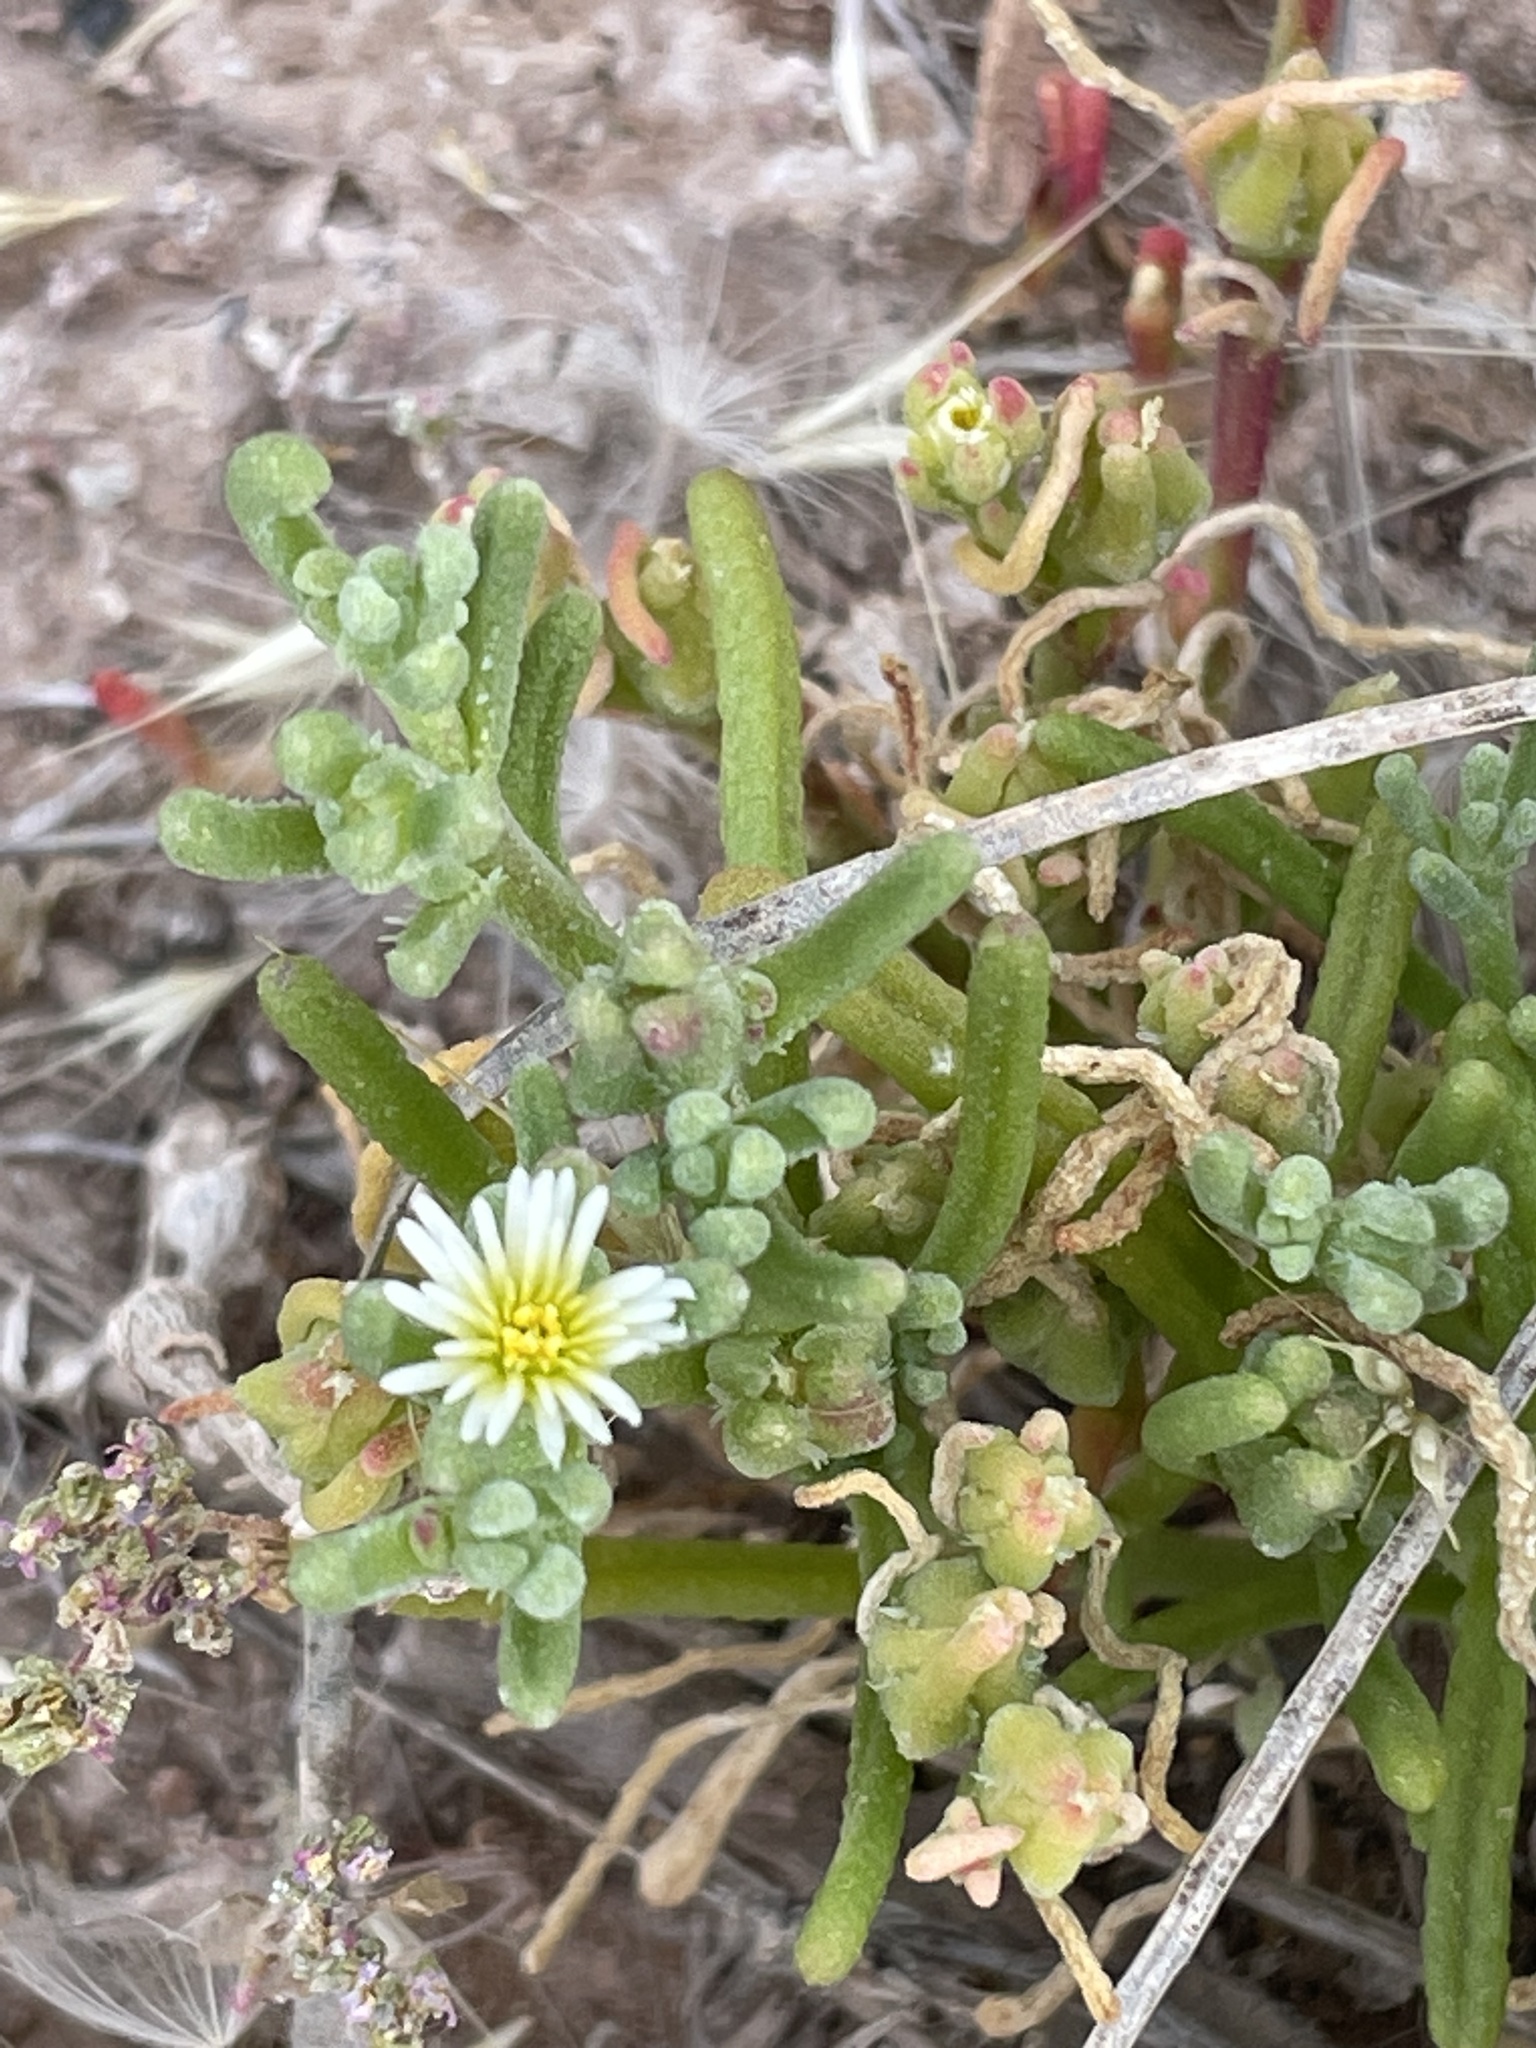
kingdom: Plantae
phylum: Tracheophyta
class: Magnoliopsida
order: Caryophyllales
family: Aizoaceae
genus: Mesembryanthemum
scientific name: Mesembryanthemum nodiflorum
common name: Slenderleaf iceplant
